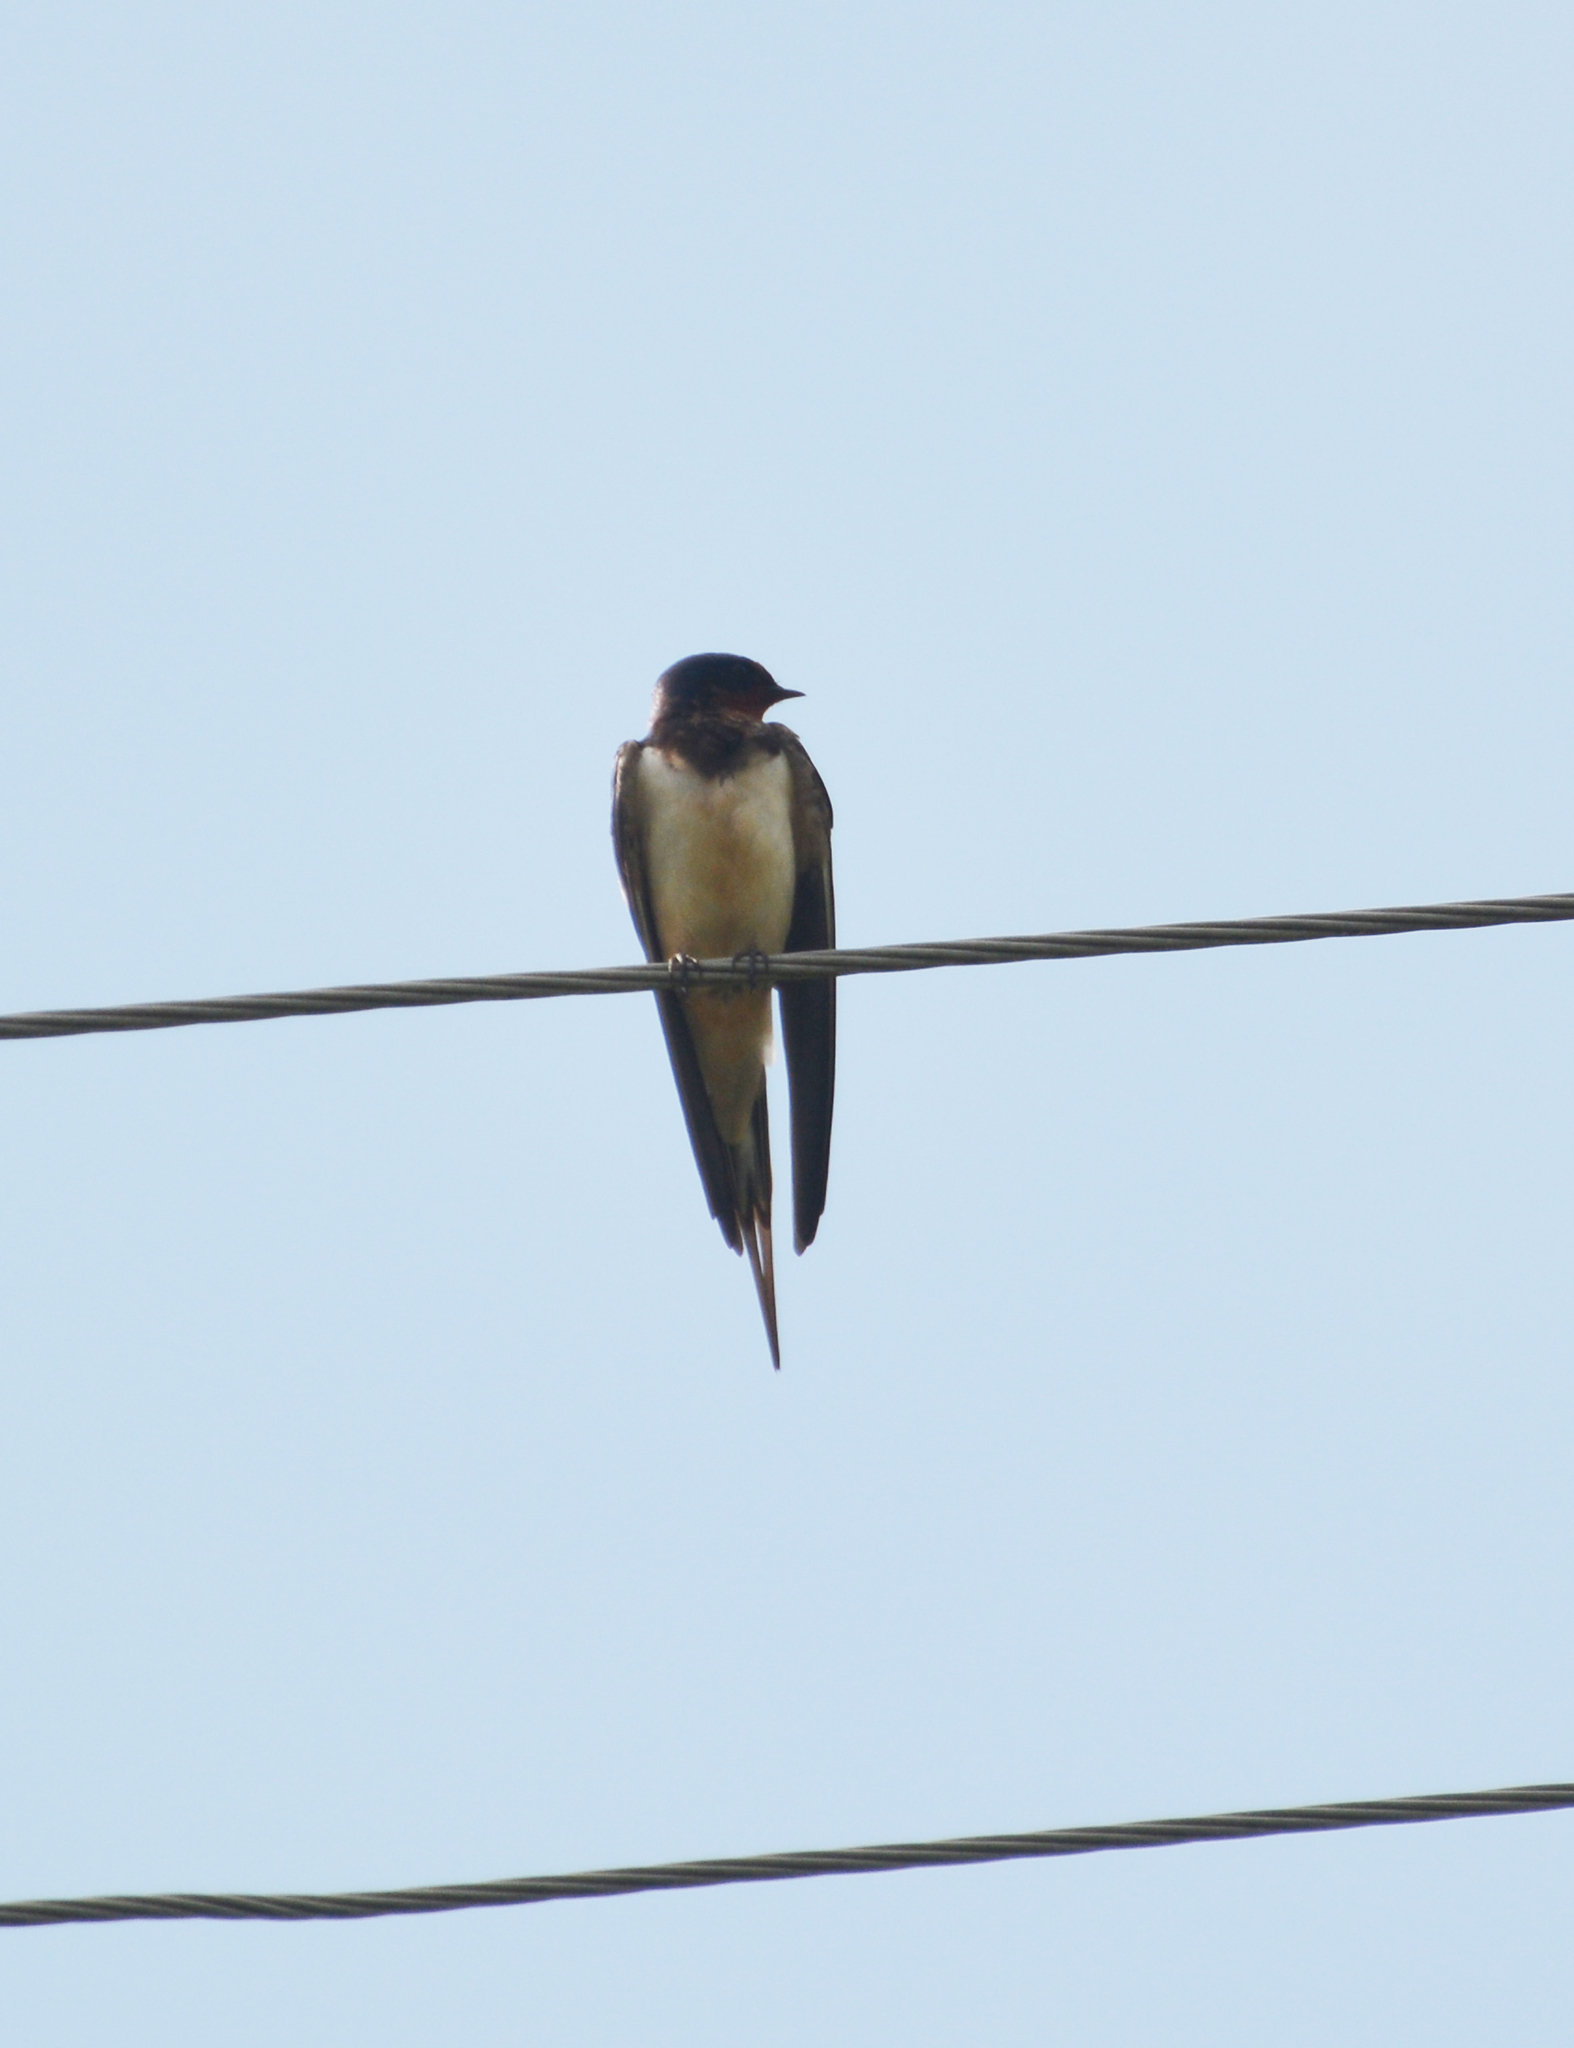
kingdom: Animalia
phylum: Chordata
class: Aves
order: Passeriformes
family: Hirundinidae
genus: Hirundo
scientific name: Hirundo rustica
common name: Barn swallow
